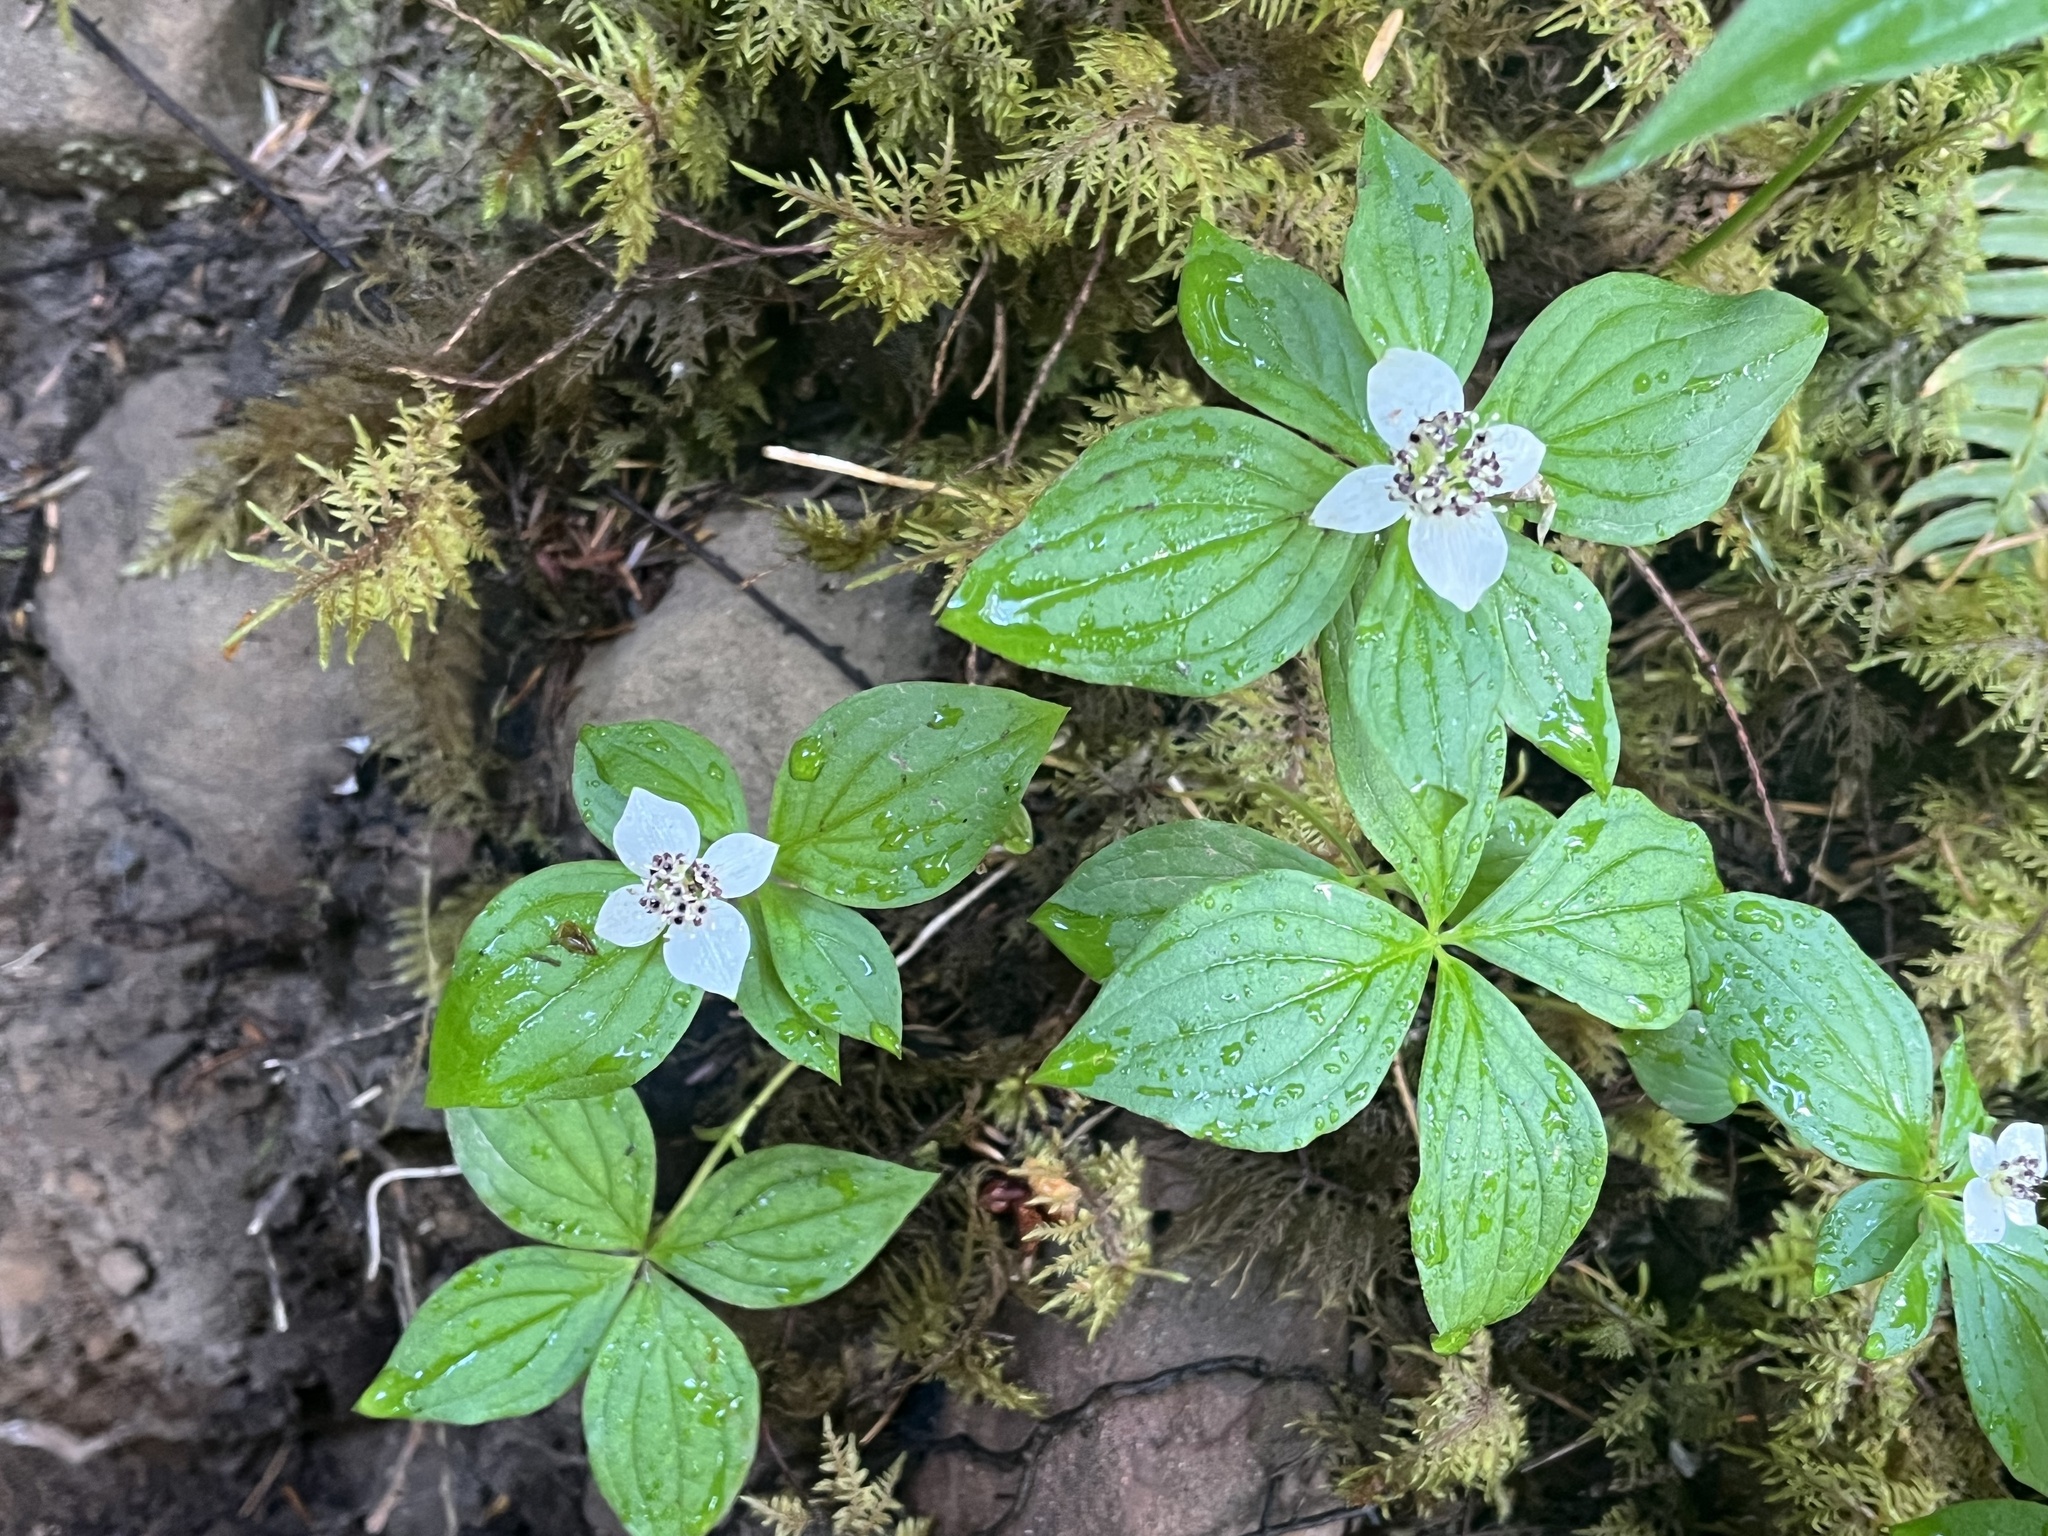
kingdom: Plantae
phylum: Tracheophyta
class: Magnoliopsida
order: Cornales
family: Cornaceae
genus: Cornus
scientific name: Cornus unalaschkensis
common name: Alaska bunchberry
